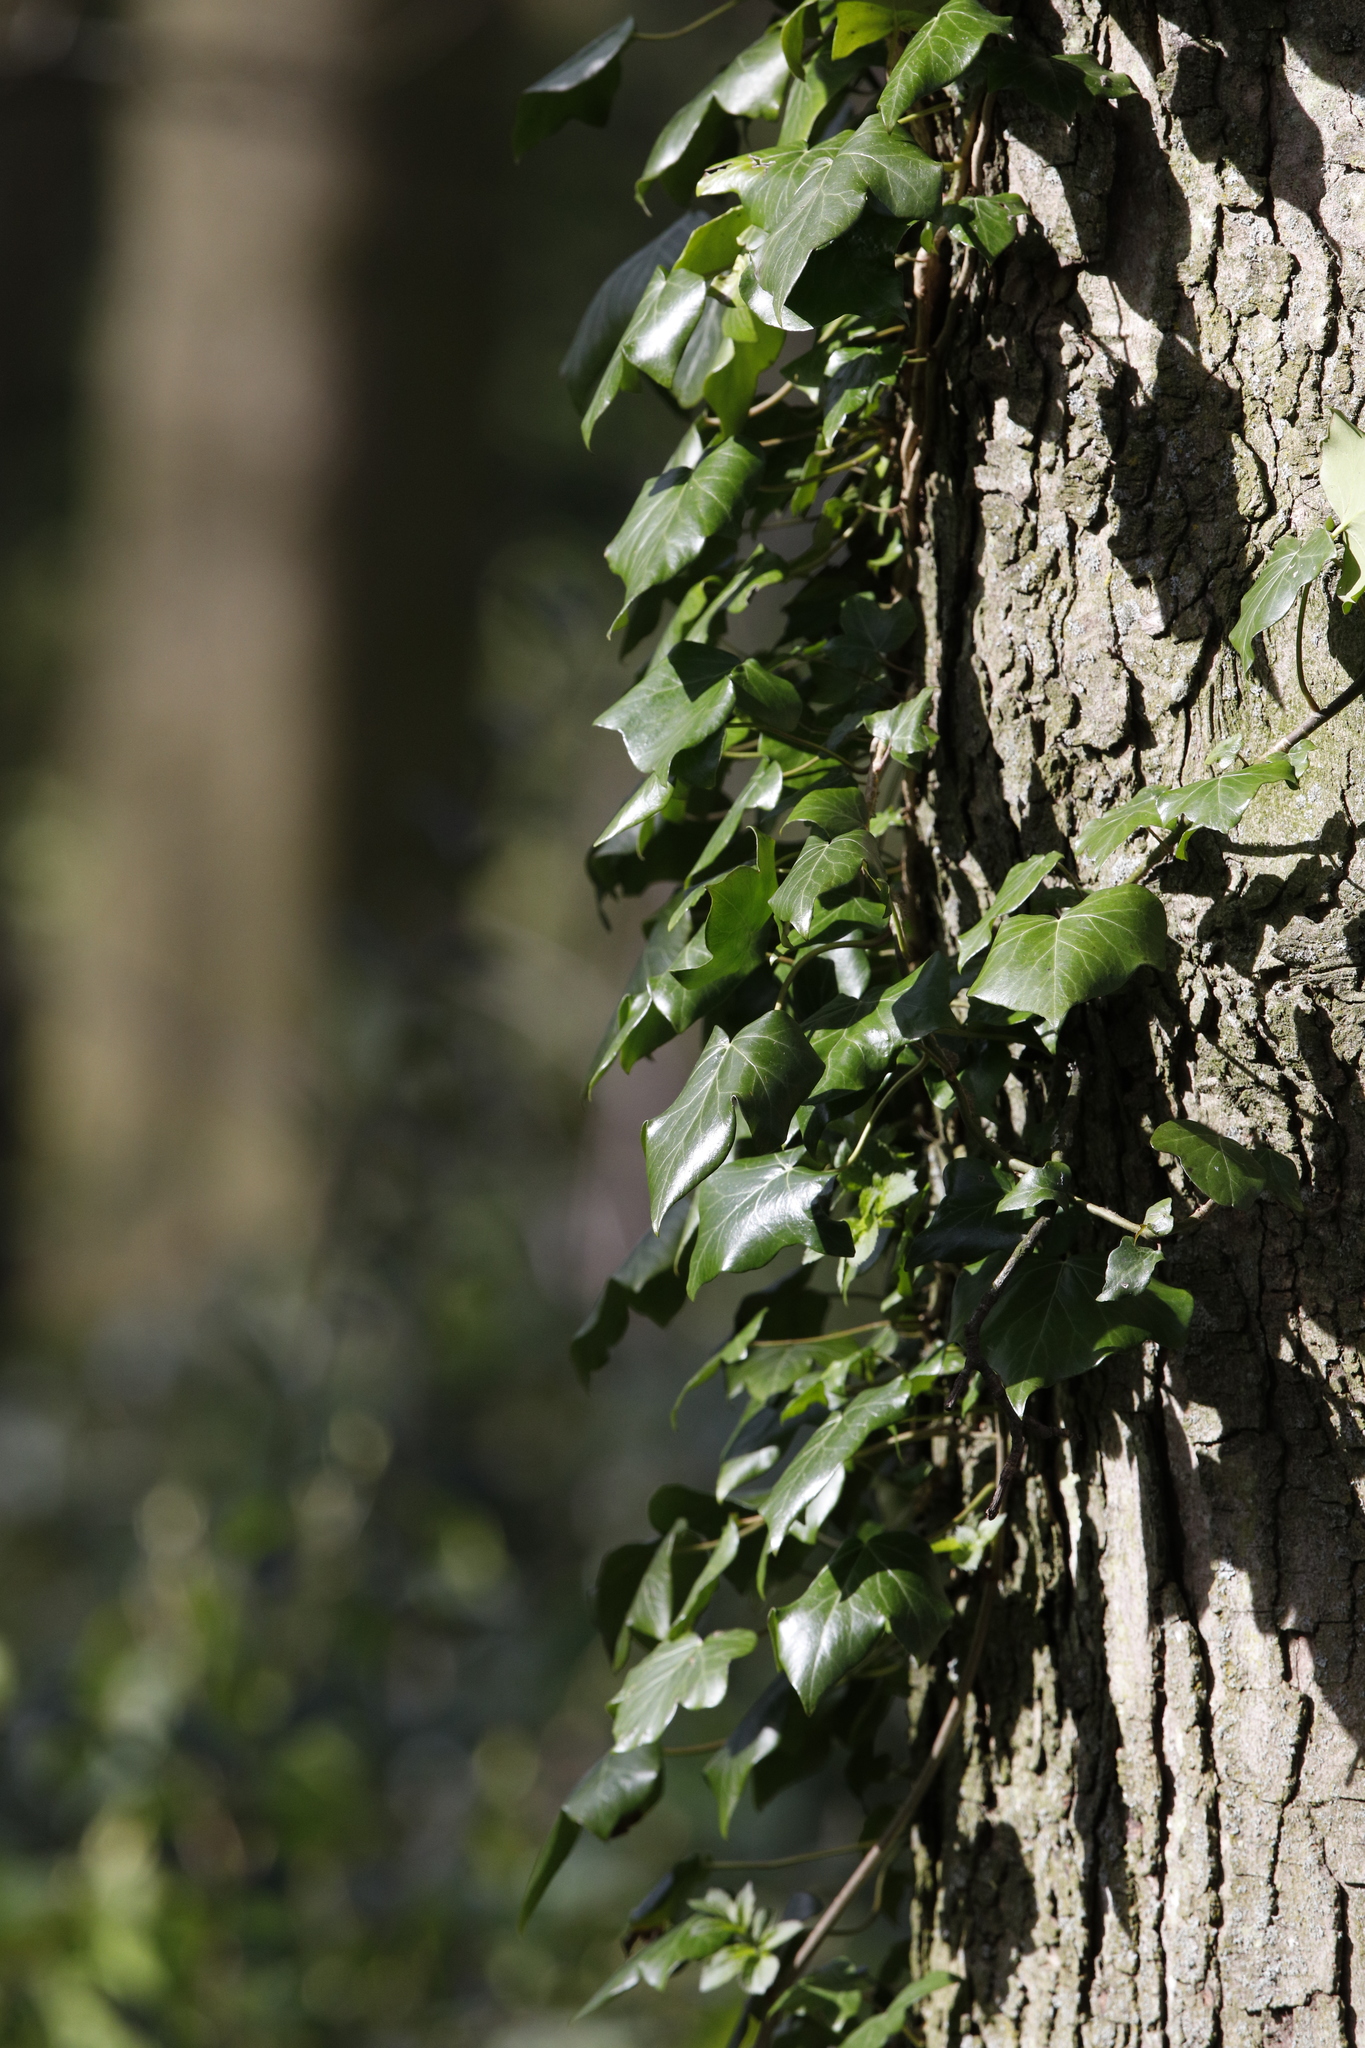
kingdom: Plantae
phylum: Tracheophyta
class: Magnoliopsida
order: Apiales
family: Araliaceae
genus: Hedera
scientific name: Hedera helix
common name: Ivy
